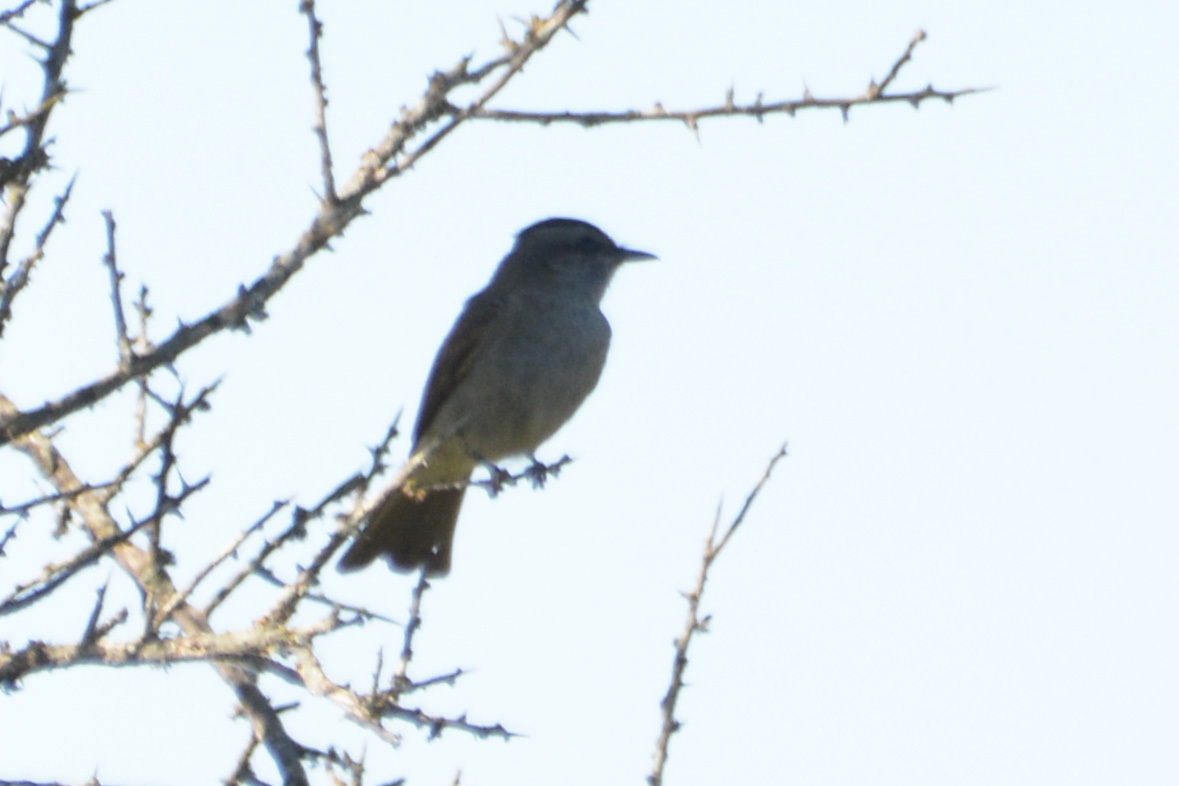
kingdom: Animalia
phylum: Chordata
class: Aves
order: Passeriformes
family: Tyrannidae
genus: Empidonomus
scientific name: Empidonomus aurantioatrocristatus
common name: Crowned slaty flycatcher
